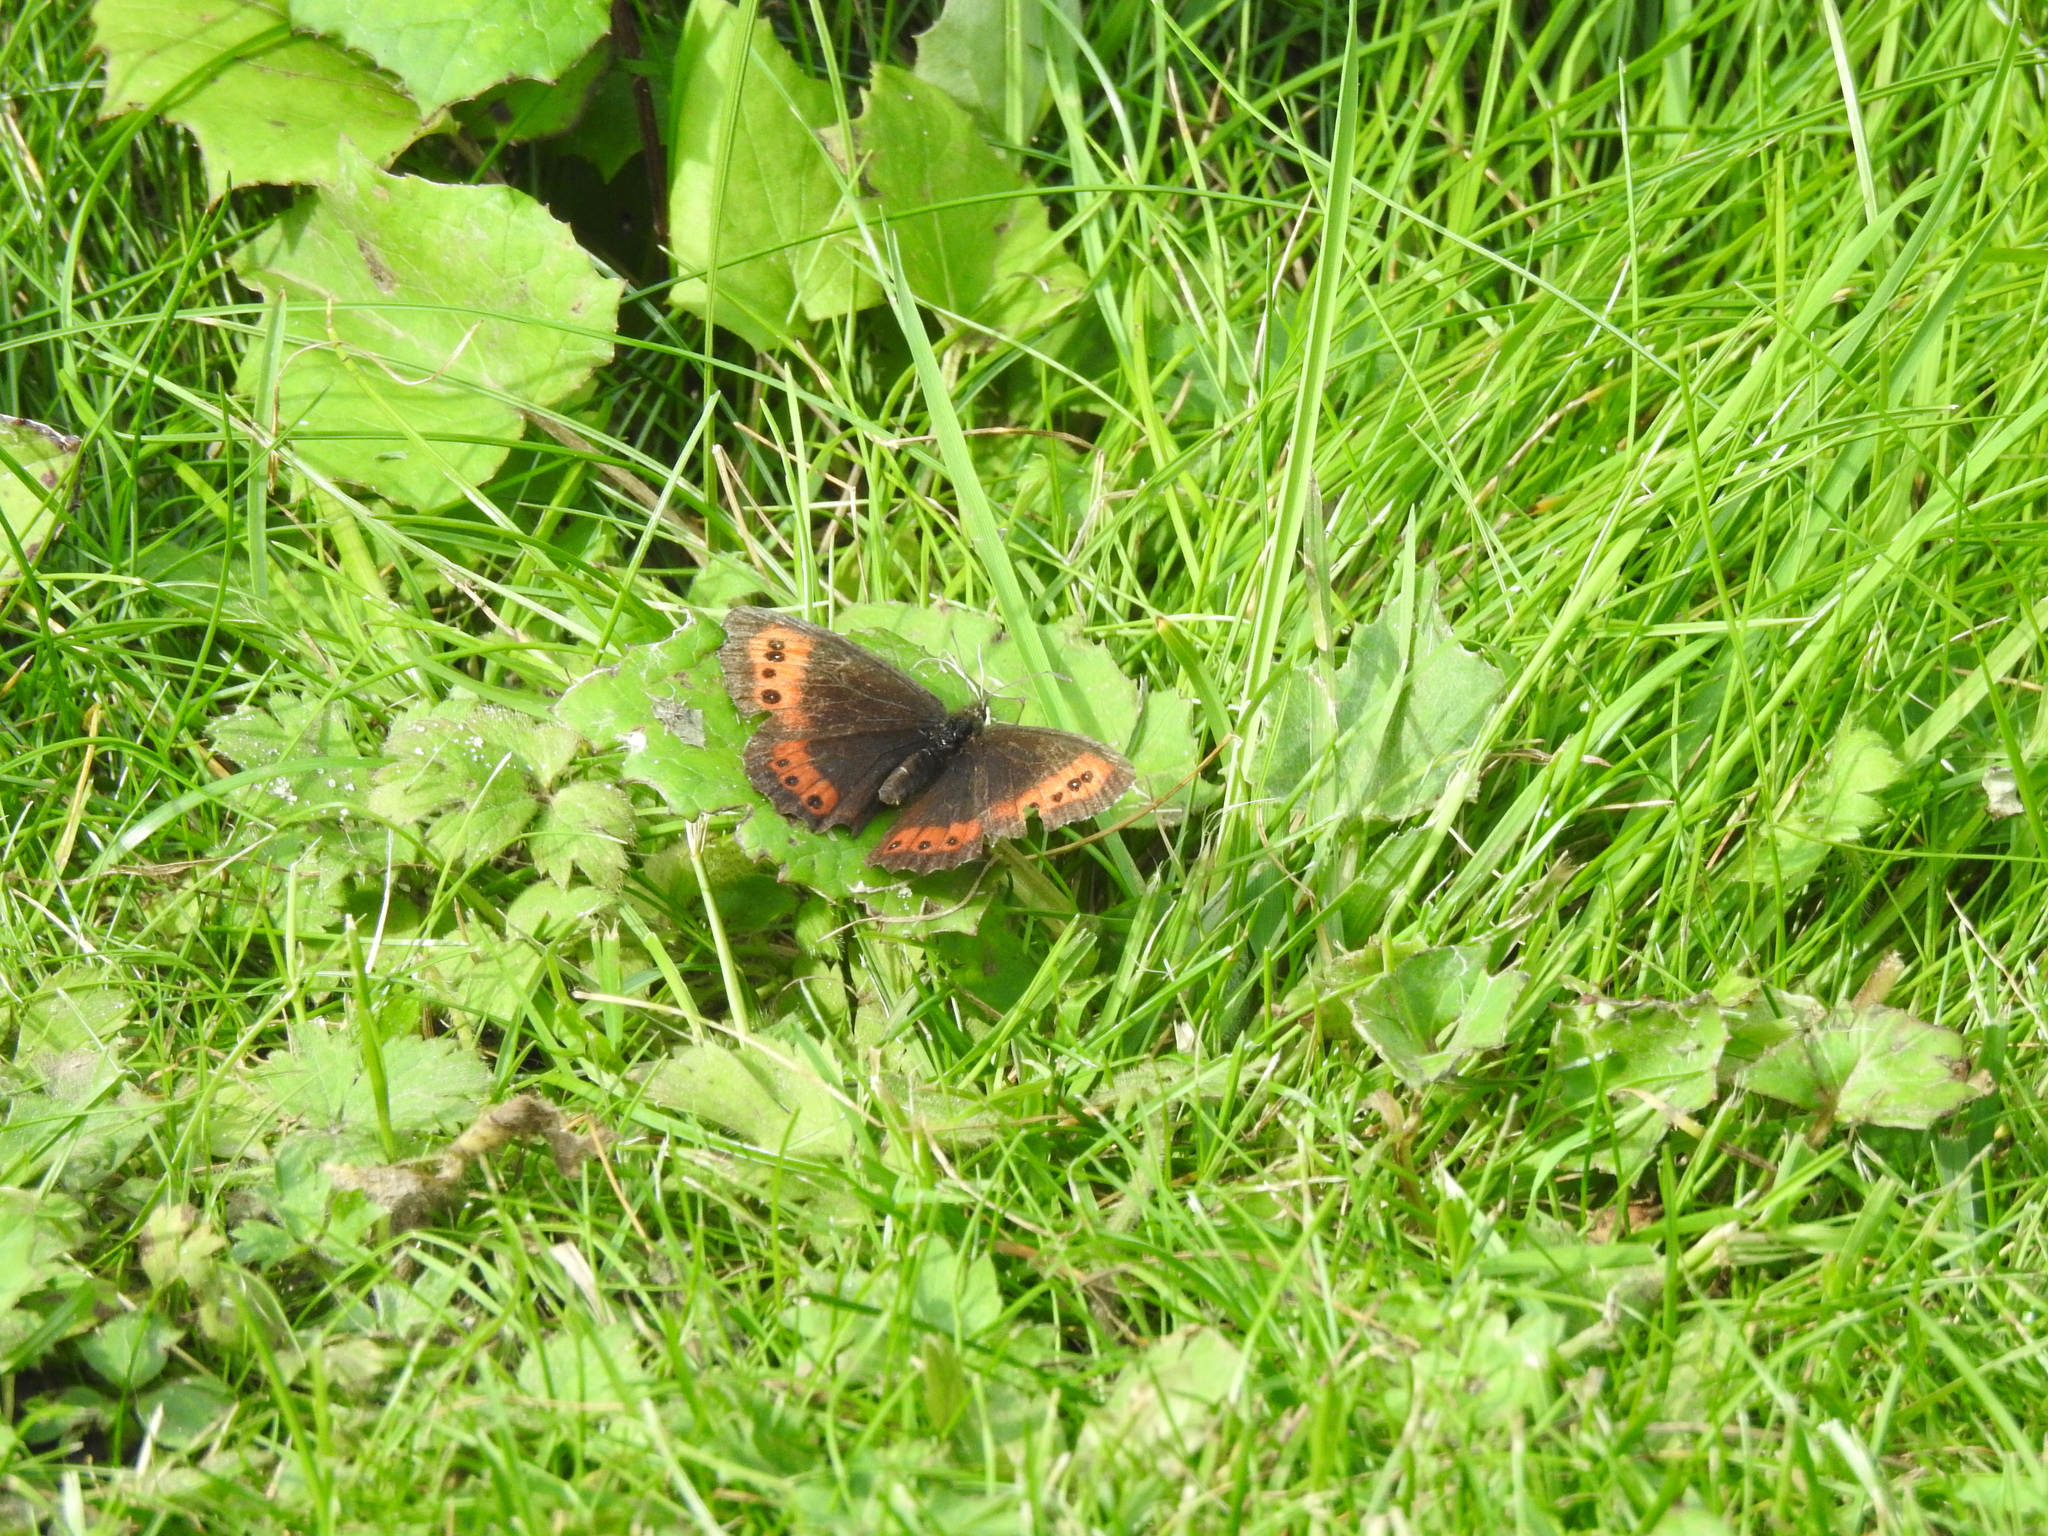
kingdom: Animalia
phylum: Arthropoda
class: Insecta
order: Lepidoptera
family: Nymphalidae
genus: Erebia
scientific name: Erebia ligea
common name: Arran brown
